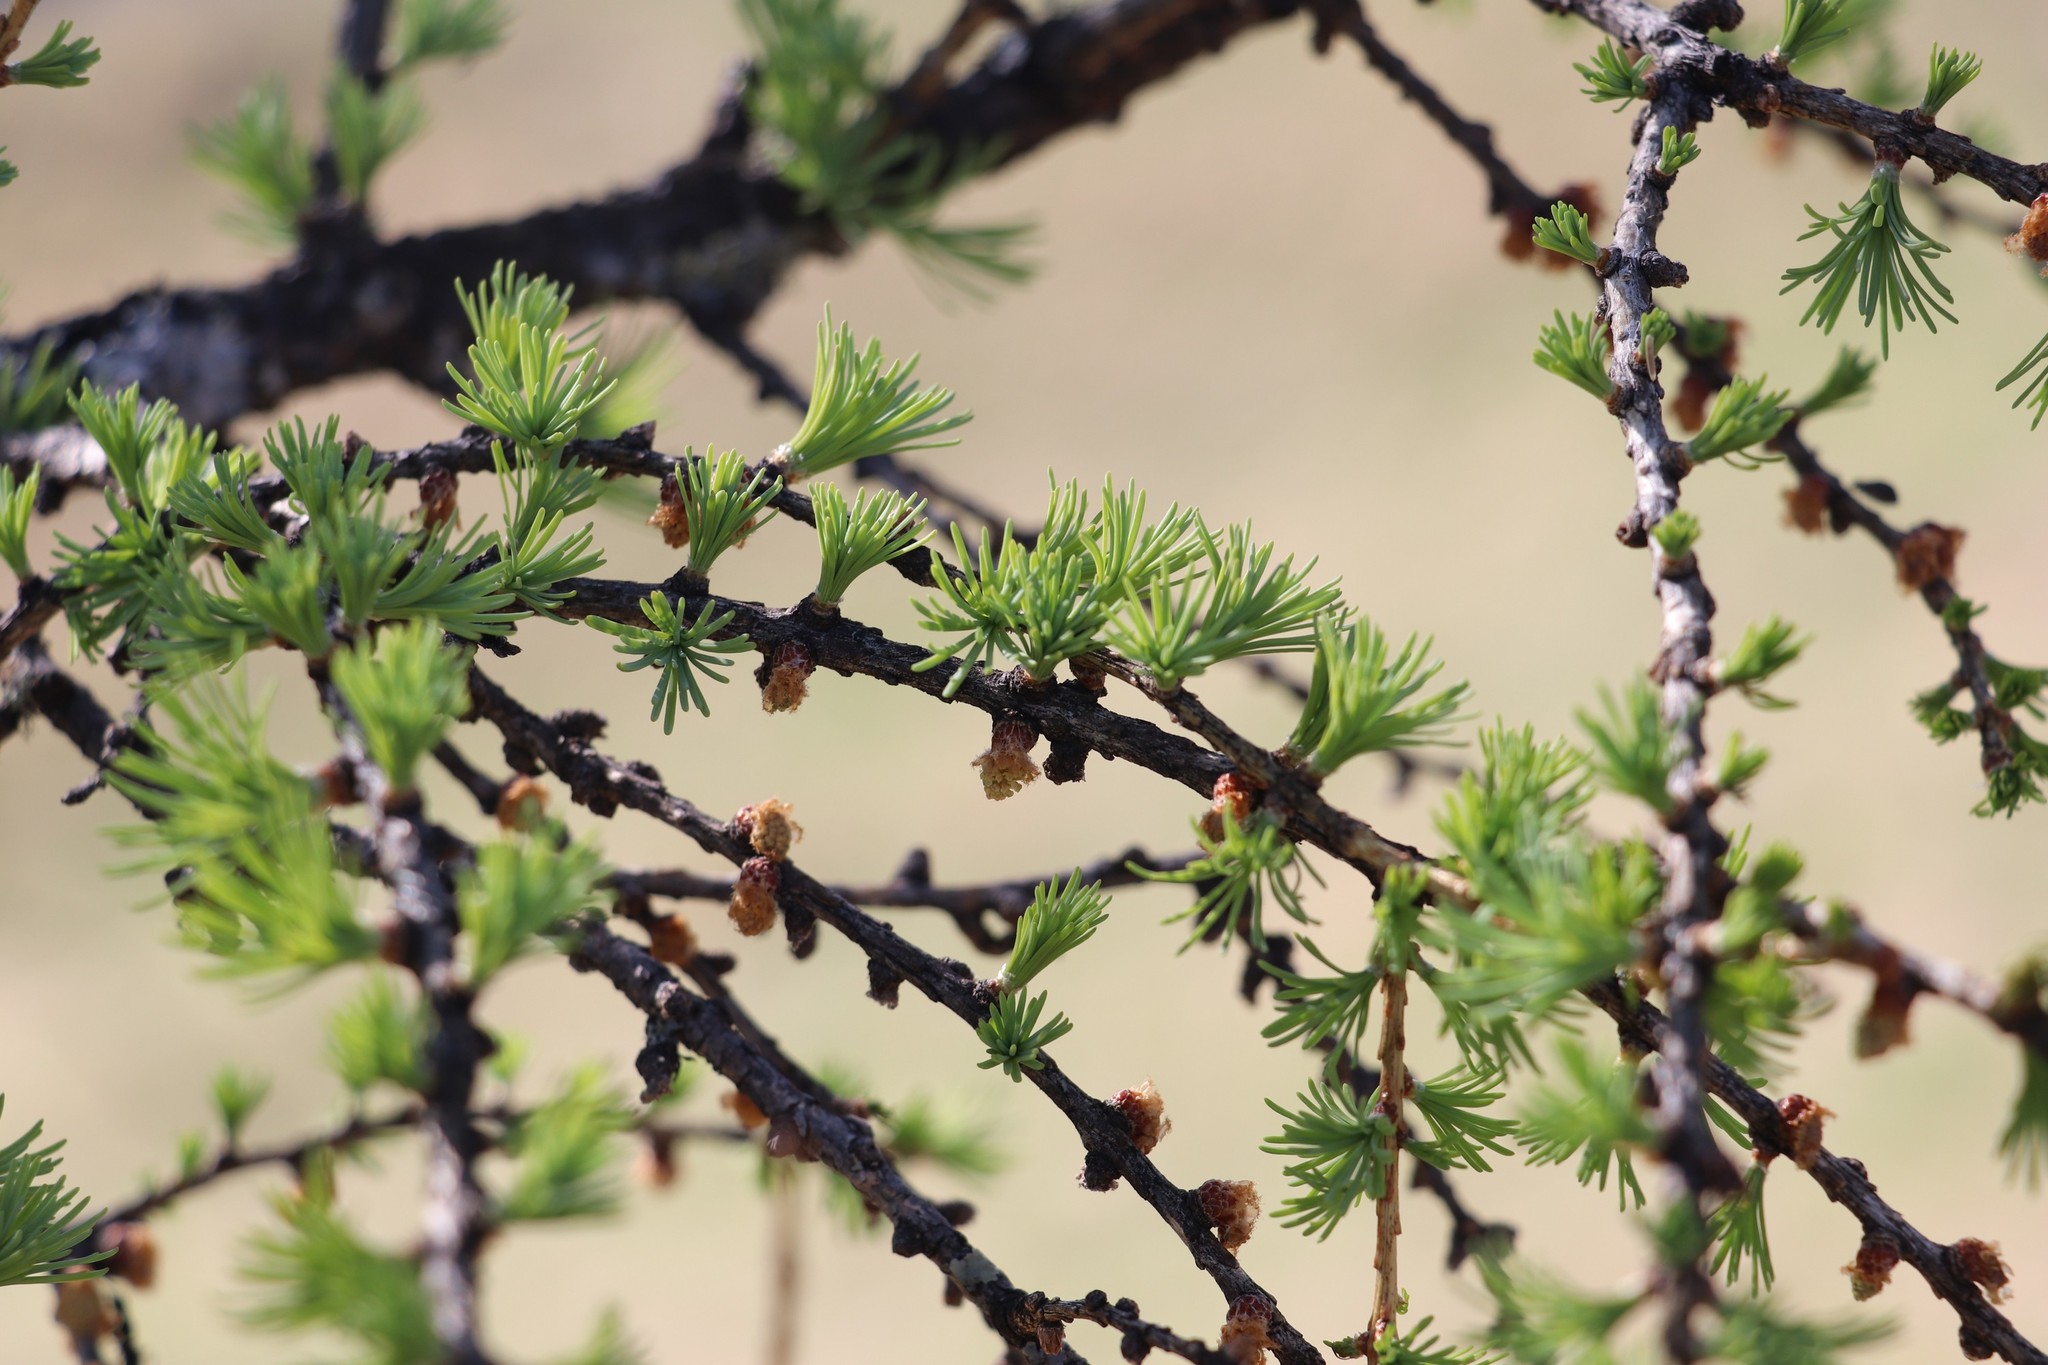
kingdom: Plantae
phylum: Tracheophyta
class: Pinopsida
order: Pinales
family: Pinaceae
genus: Larix
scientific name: Larix sibirica
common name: Siberian larch
